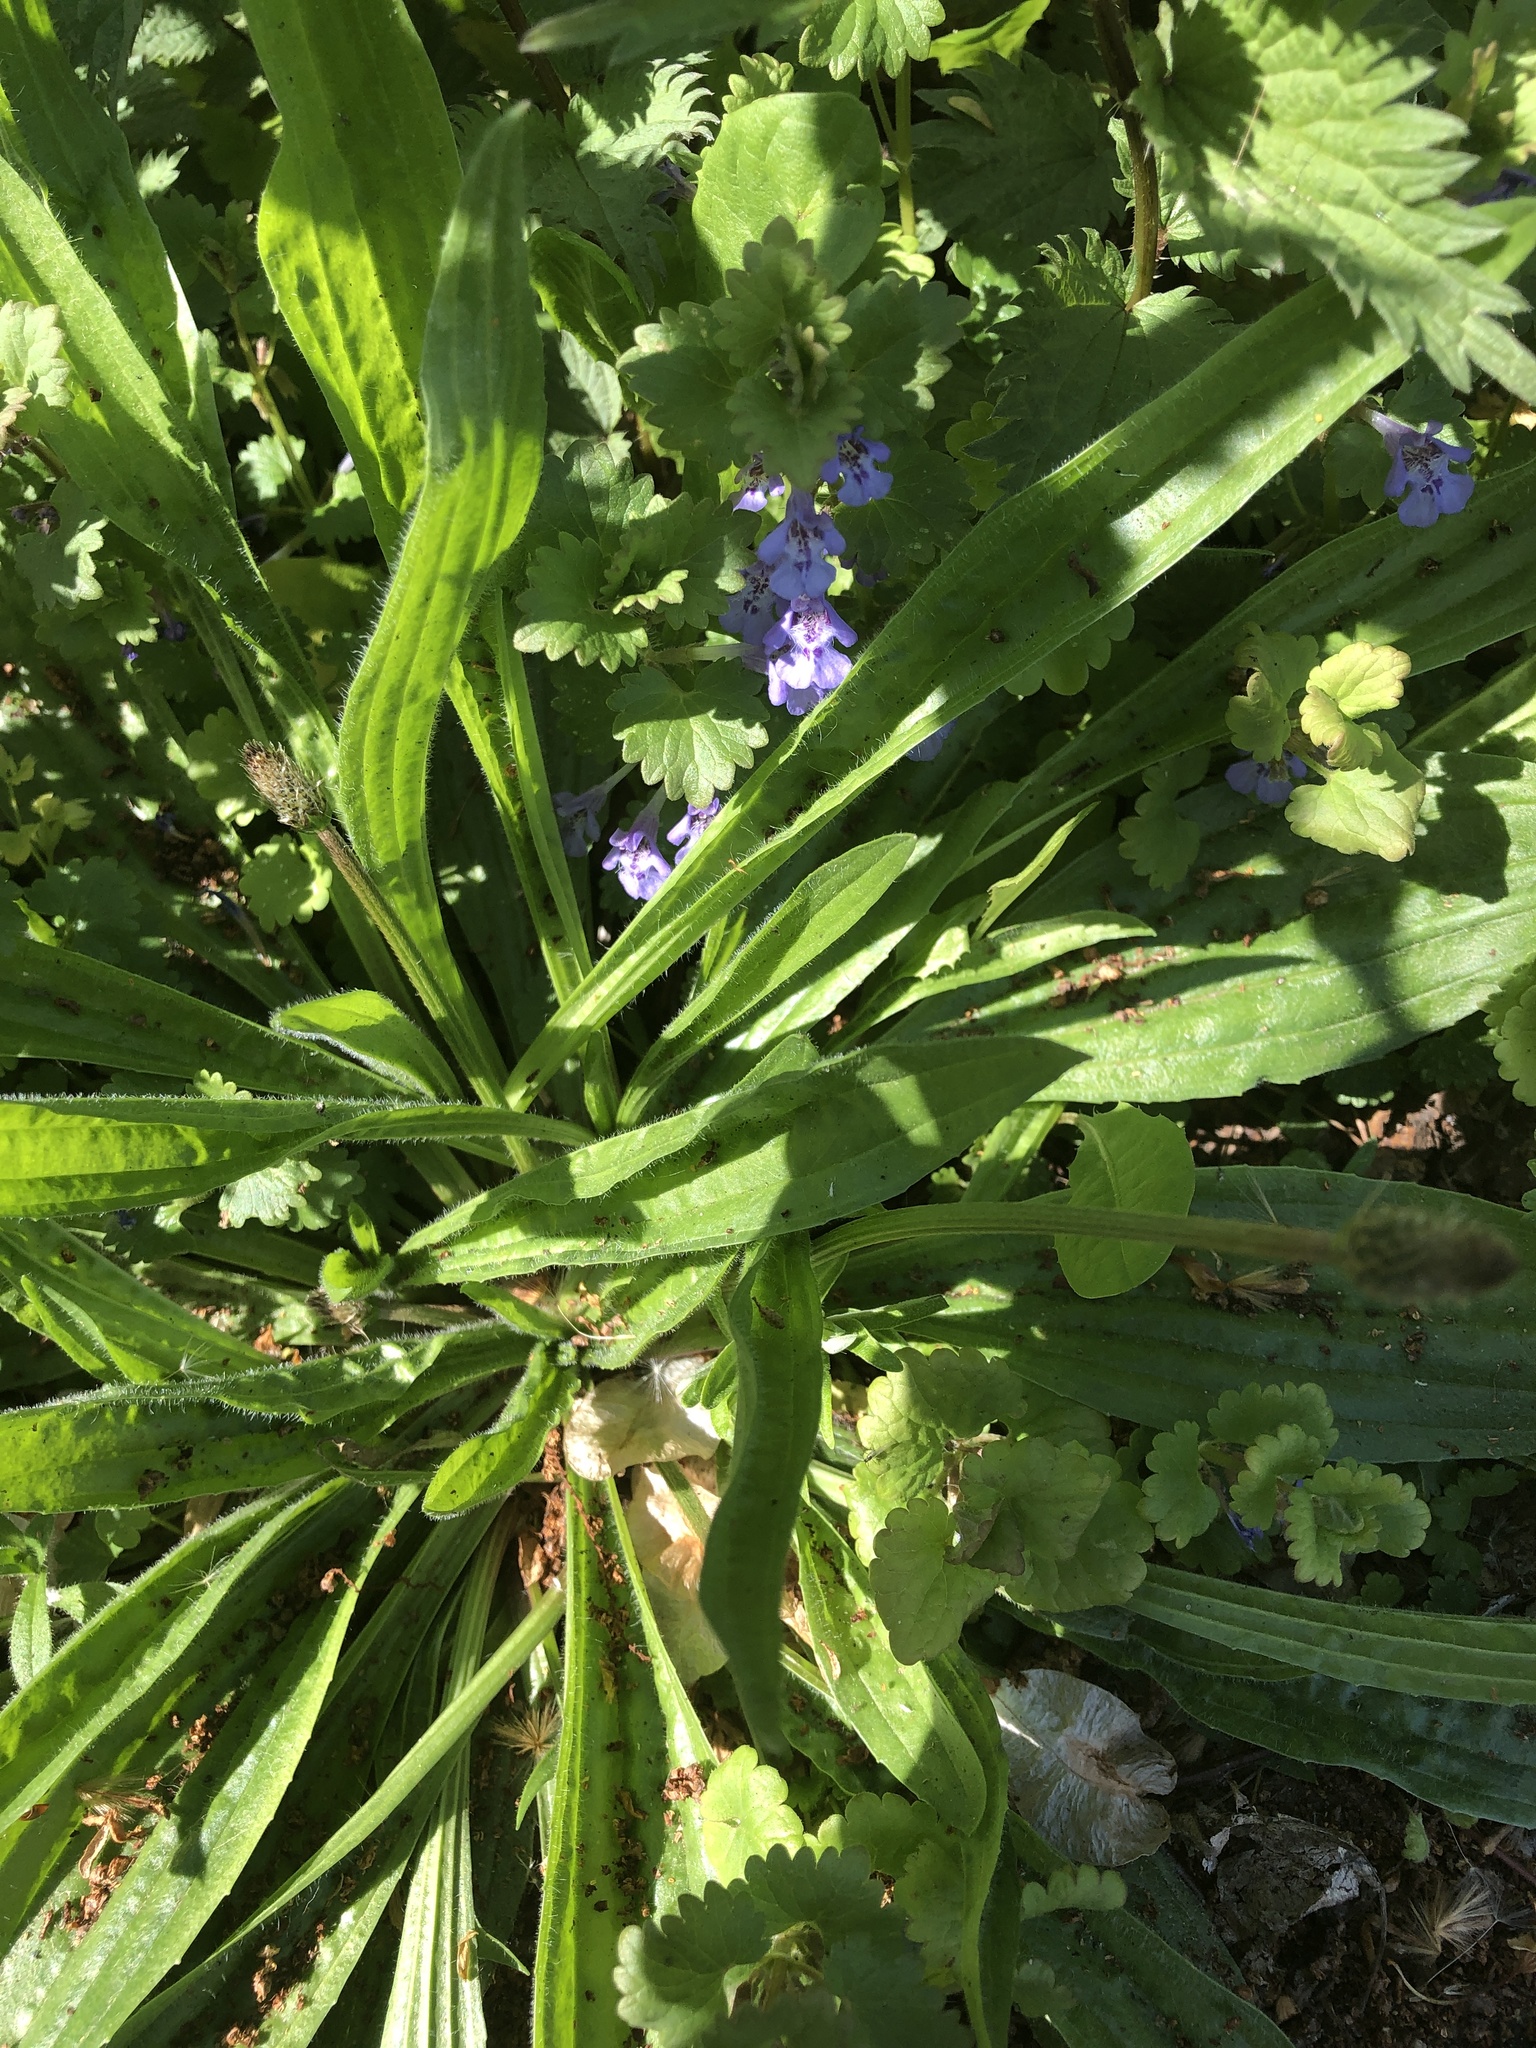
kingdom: Plantae
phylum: Tracheophyta
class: Magnoliopsida
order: Lamiales
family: Plantaginaceae
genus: Plantago
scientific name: Plantago lanceolata
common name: Ribwort plantain
